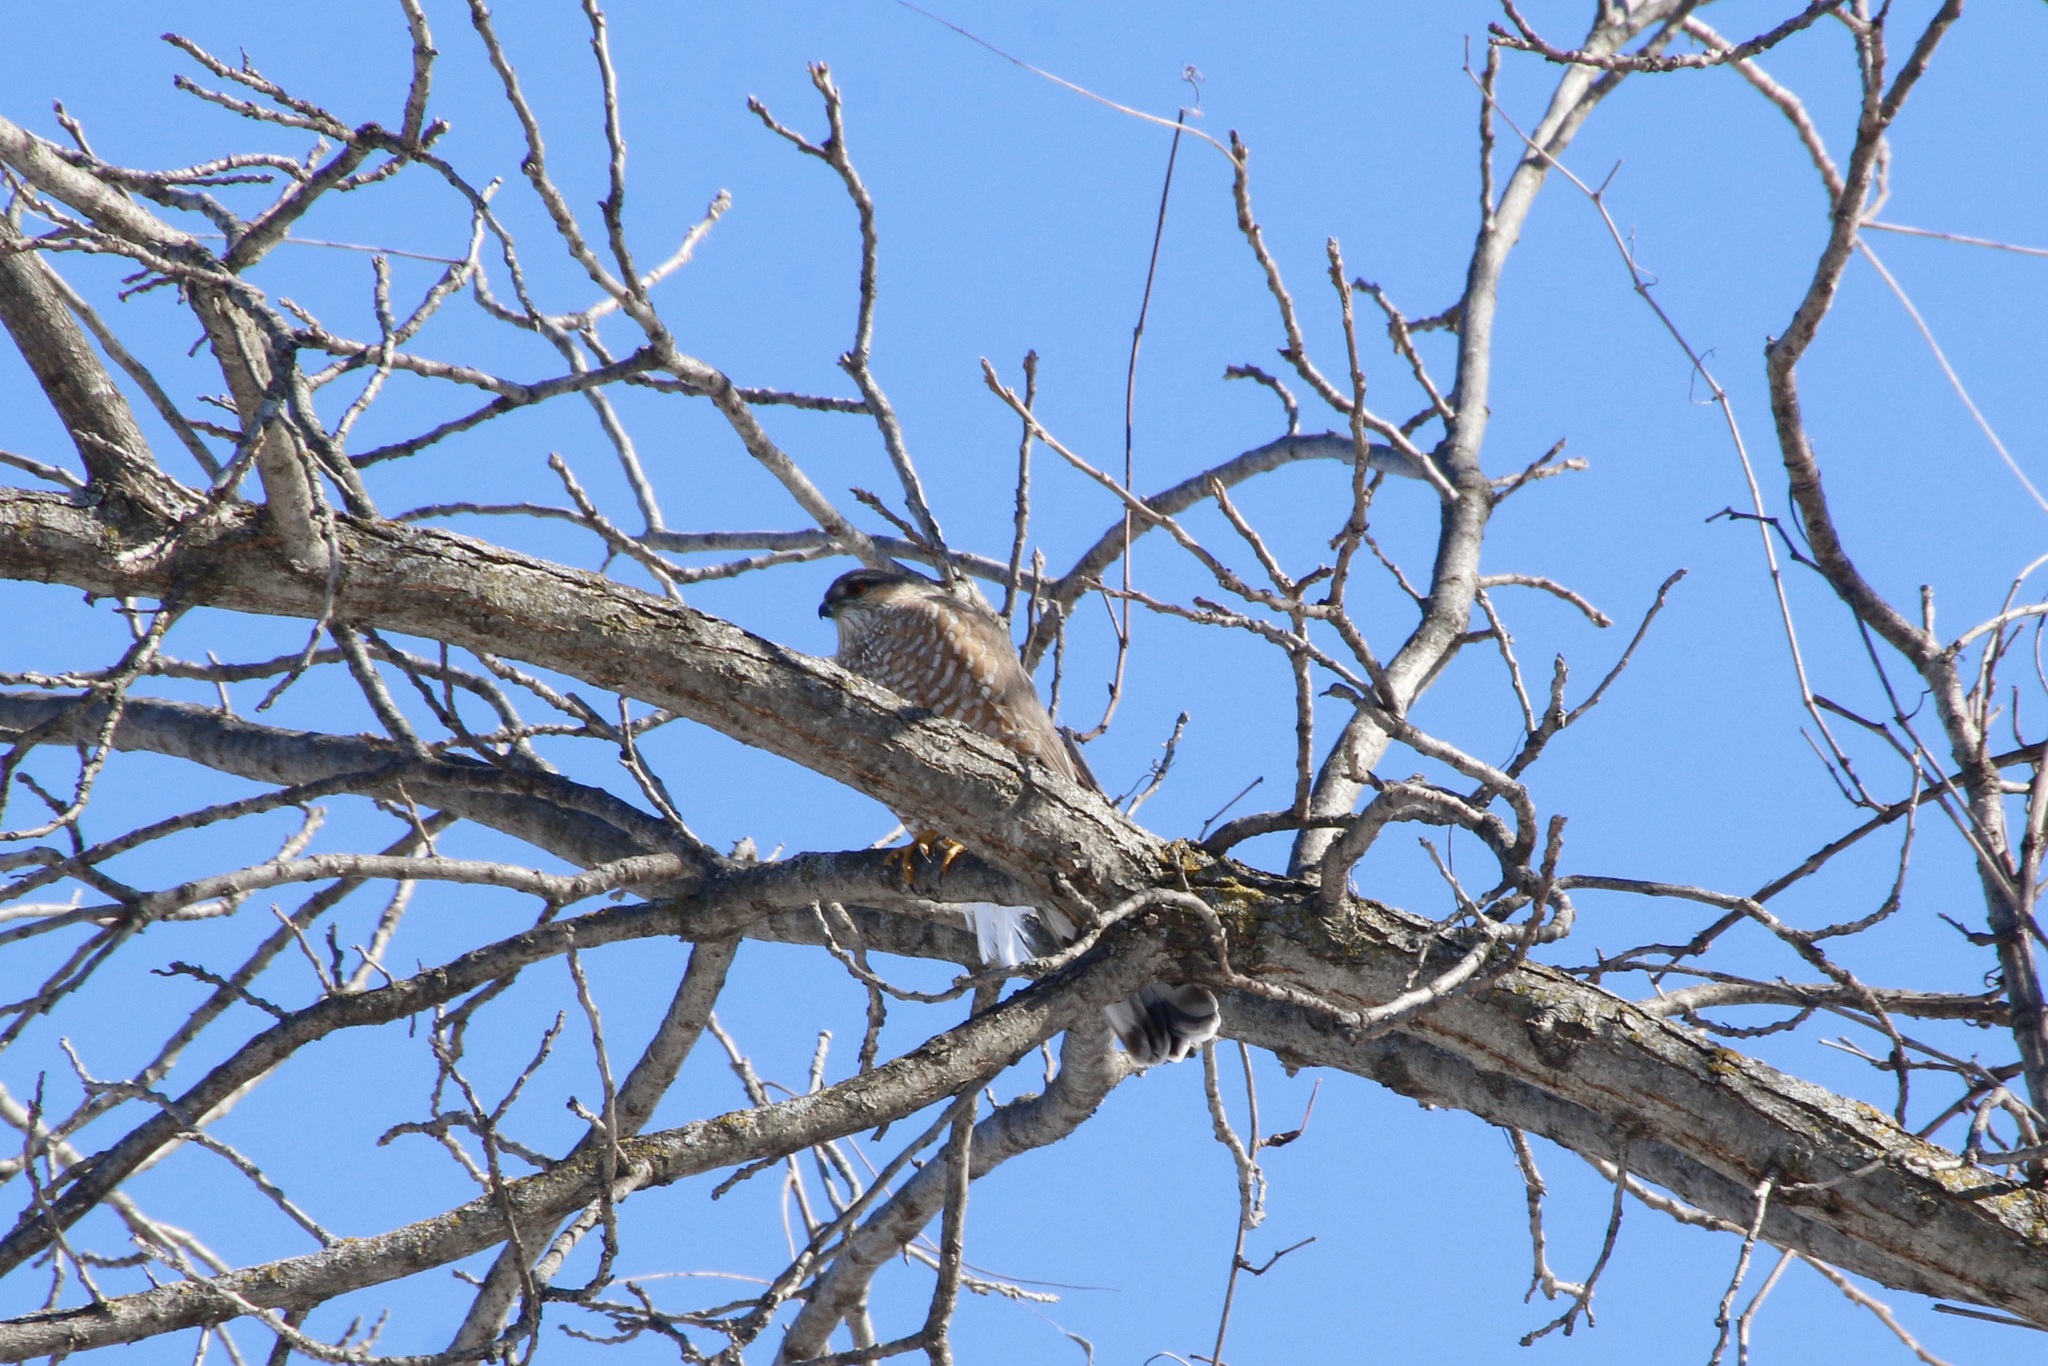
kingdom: Animalia
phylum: Chordata
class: Aves
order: Accipitriformes
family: Accipitridae
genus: Accipiter
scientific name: Accipiter striatus
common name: Sharp-shinned hawk
